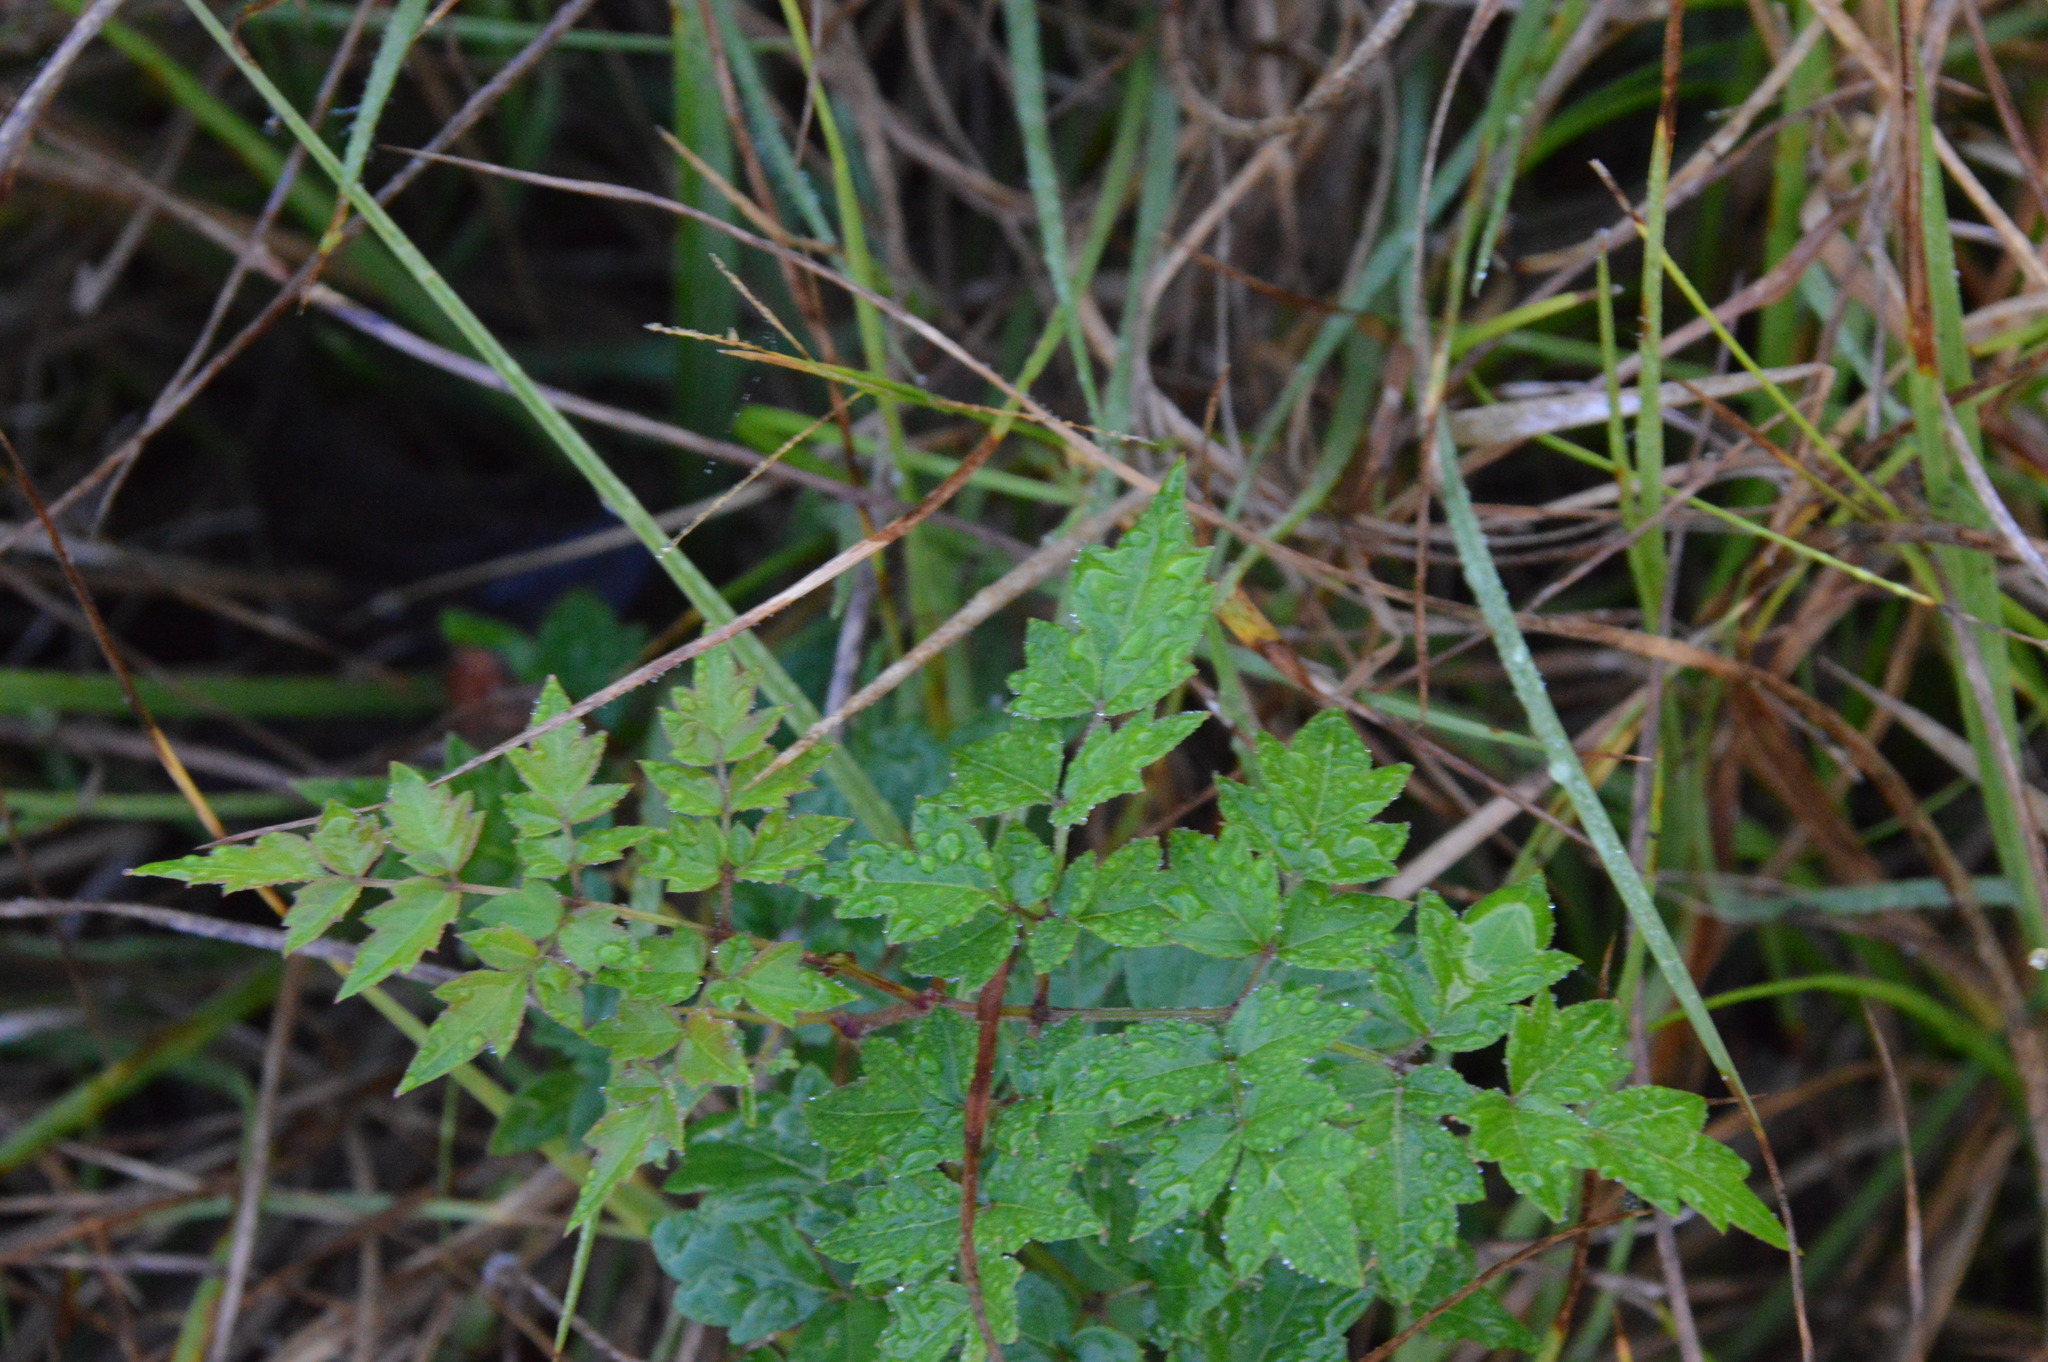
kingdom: Plantae
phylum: Tracheophyta
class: Magnoliopsida
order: Vitales
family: Vitaceae
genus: Nekemias
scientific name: Nekemias arborea
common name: Peppervine
